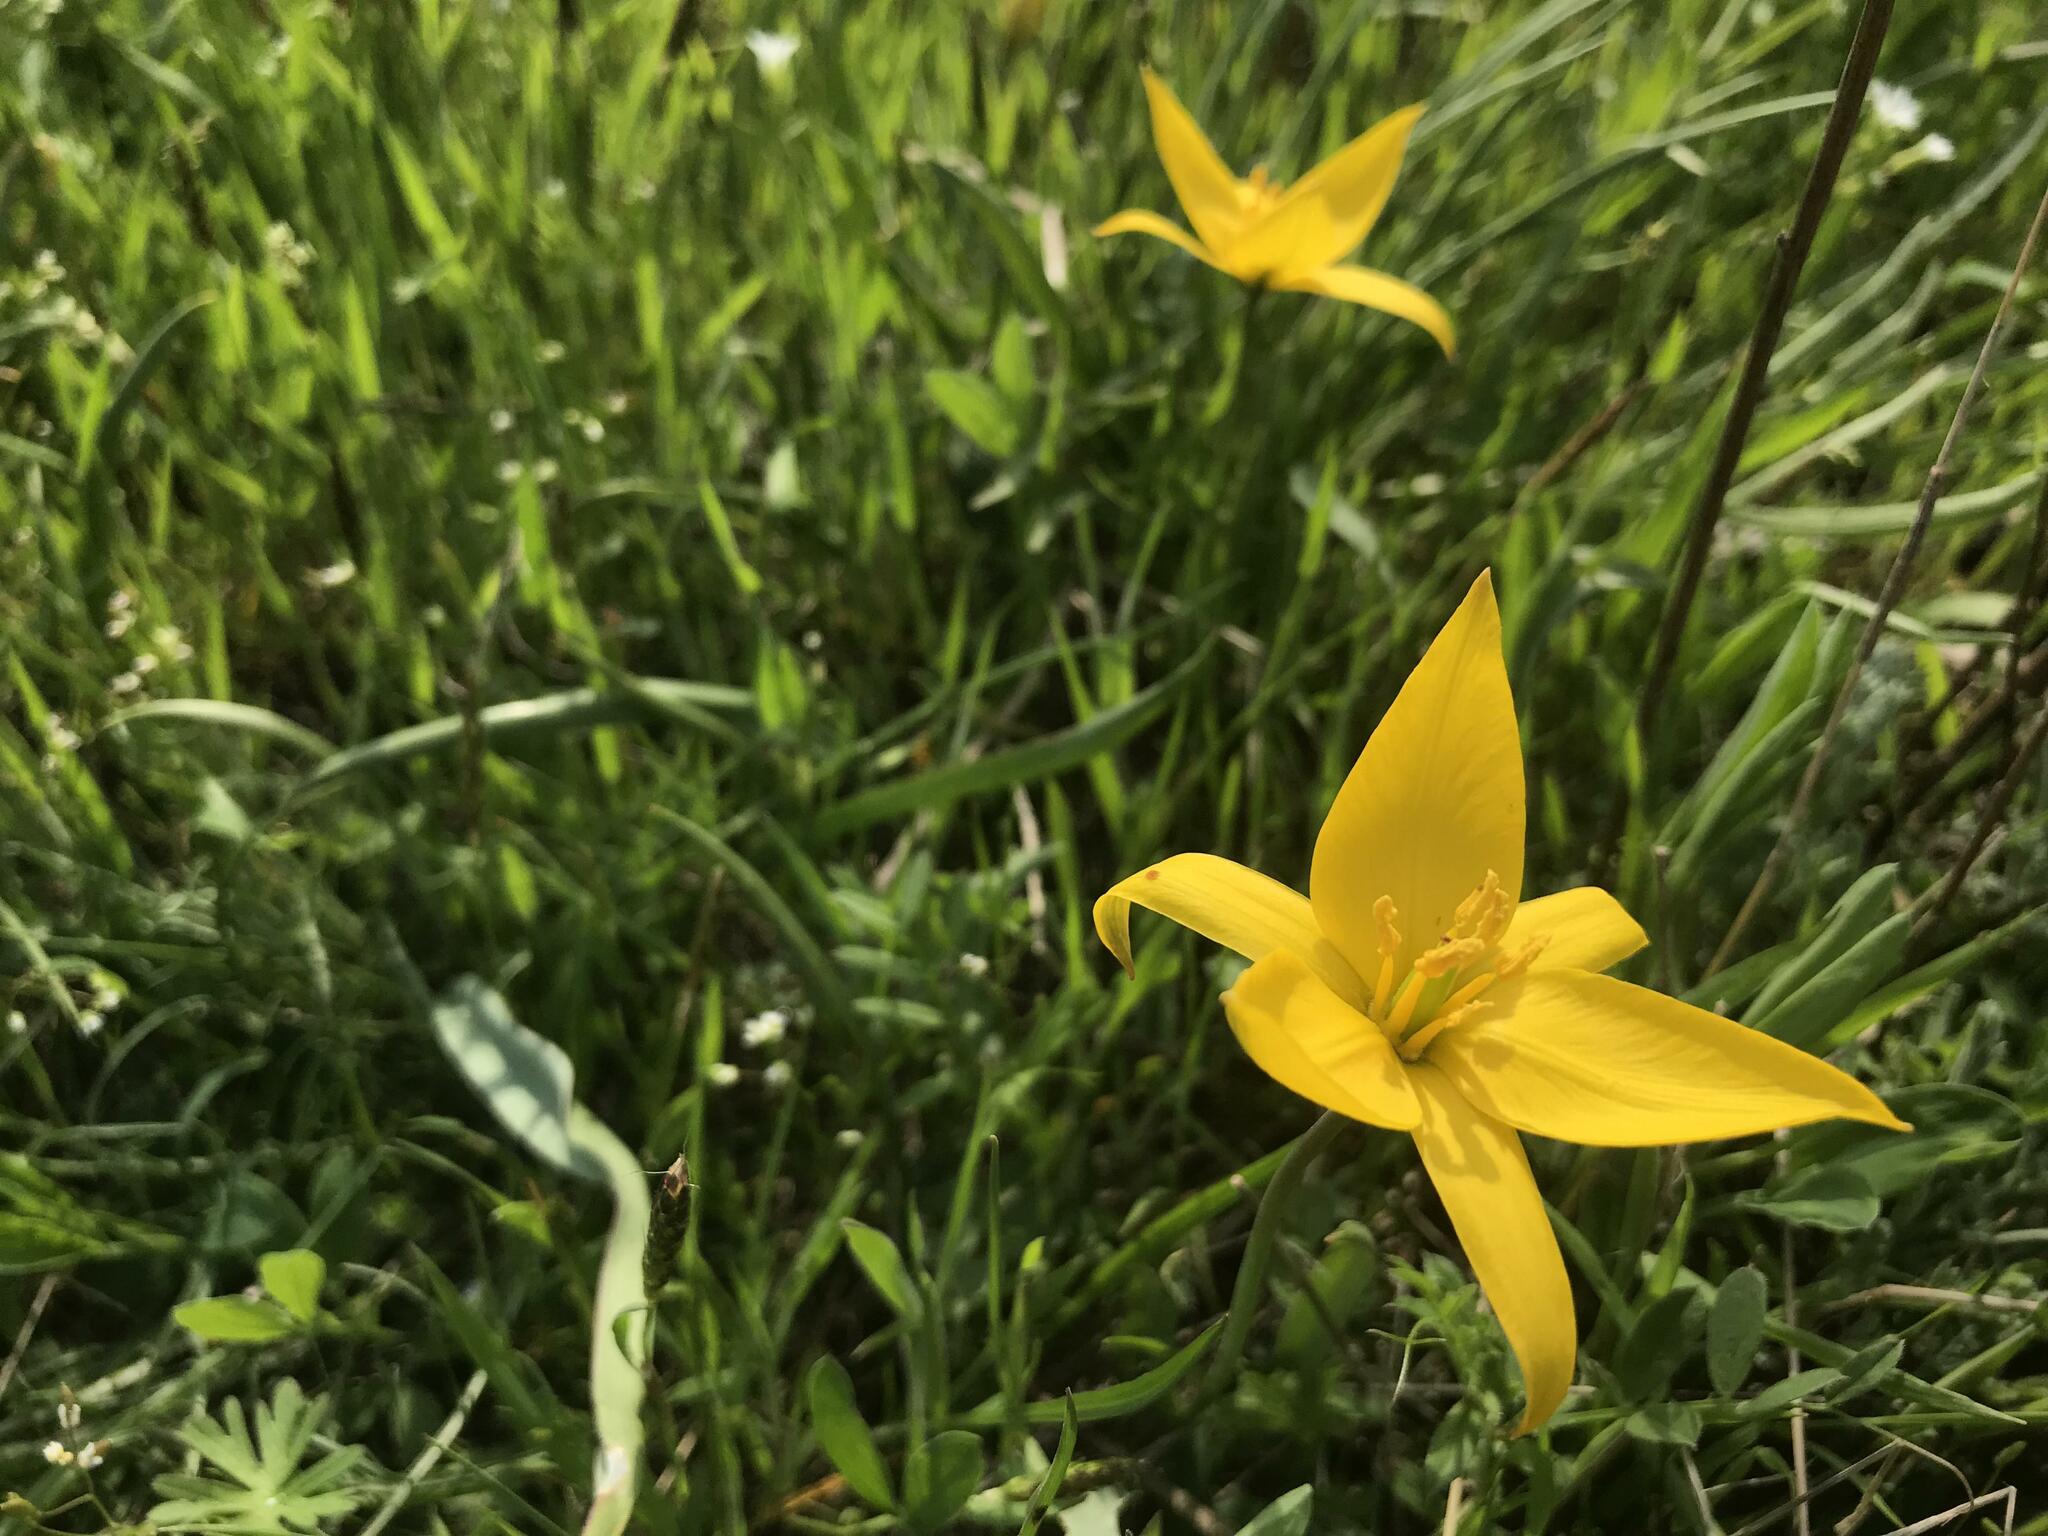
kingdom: Plantae
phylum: Tracheophyta
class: Liliopsida
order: Liliales
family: Liliaceae
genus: Tulipa
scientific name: Tulipa sylvestris
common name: Wild tulip
